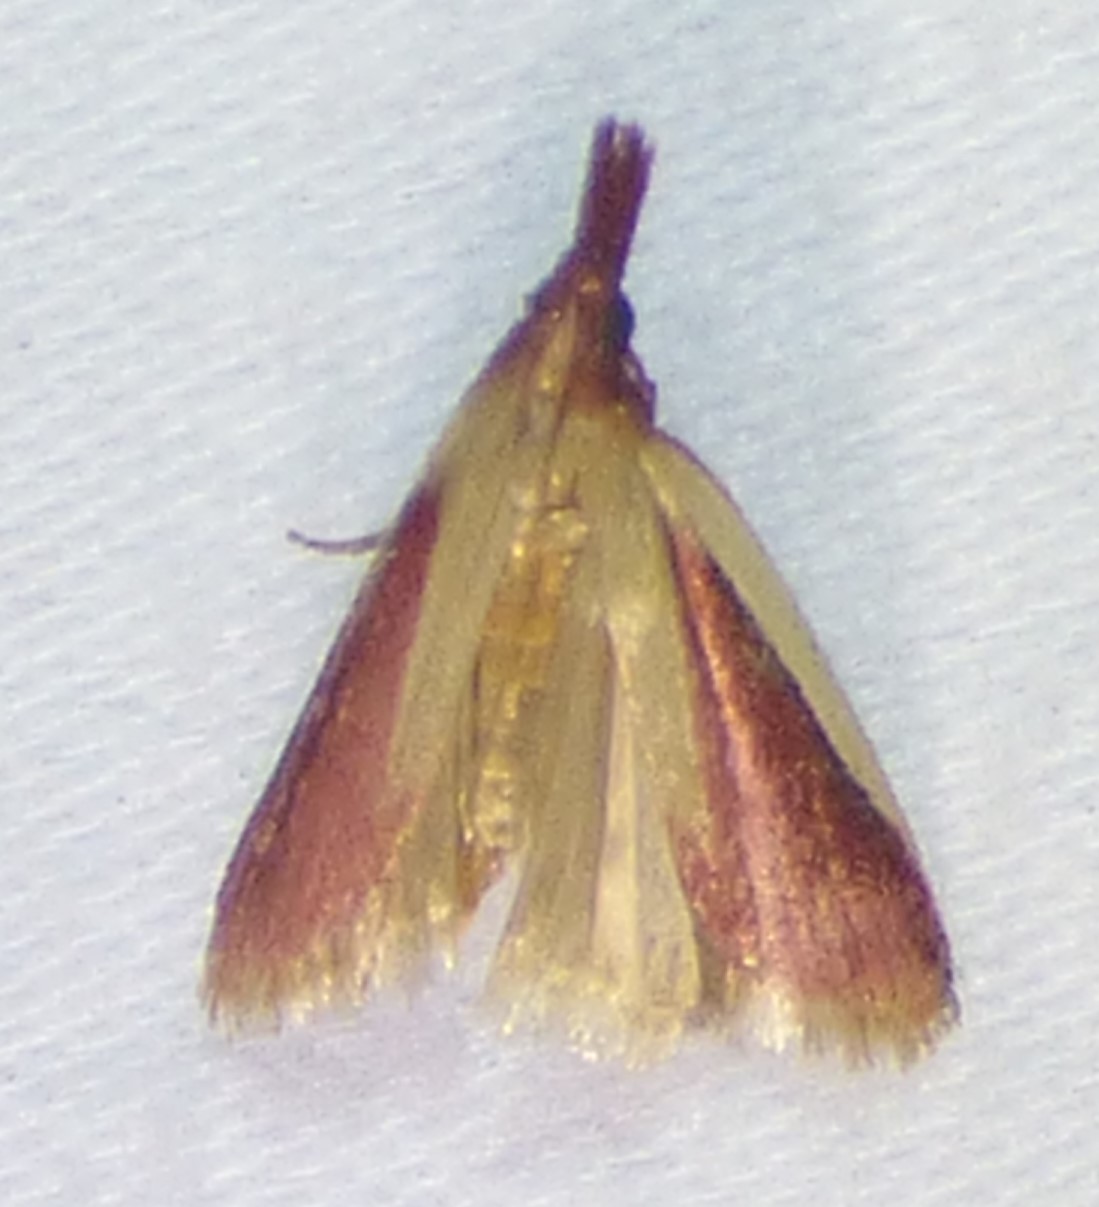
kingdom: Animalia
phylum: Arthropoda
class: Insecta
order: Lepidoptera
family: Pyralidae
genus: Peoria
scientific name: Peoria approximella
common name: Carmine snout
